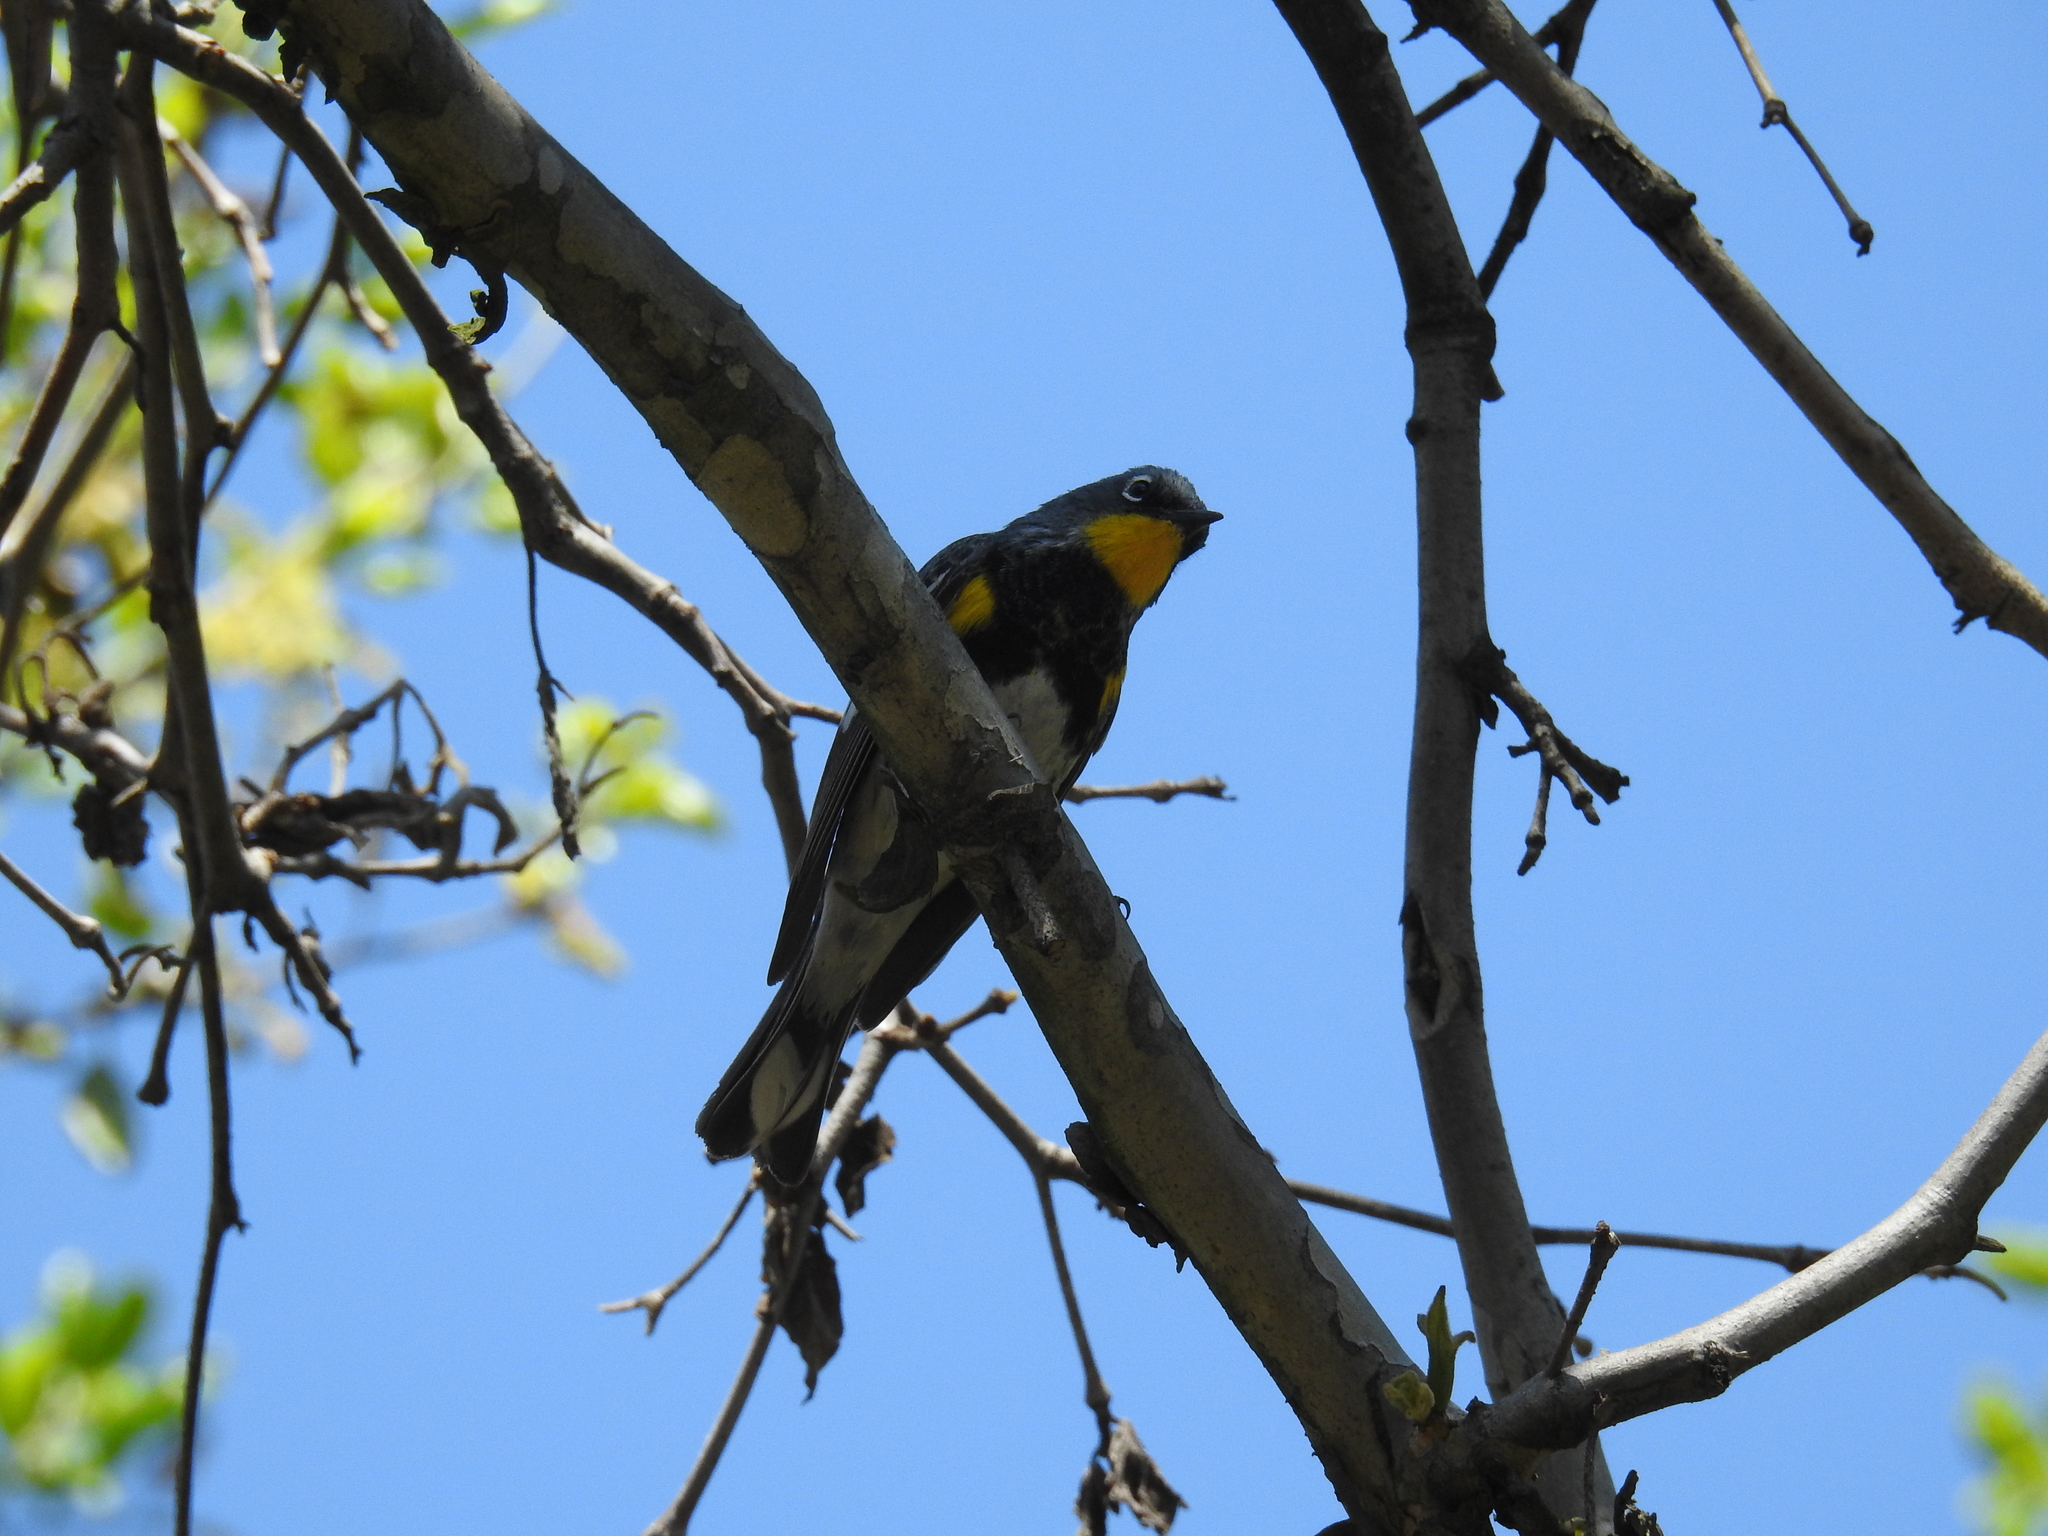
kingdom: Animalia
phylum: Chordata
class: Aves
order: Passeriformes
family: Parulidae
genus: Setophaga
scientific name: Setophaga coronata
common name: Myrtle warbler
